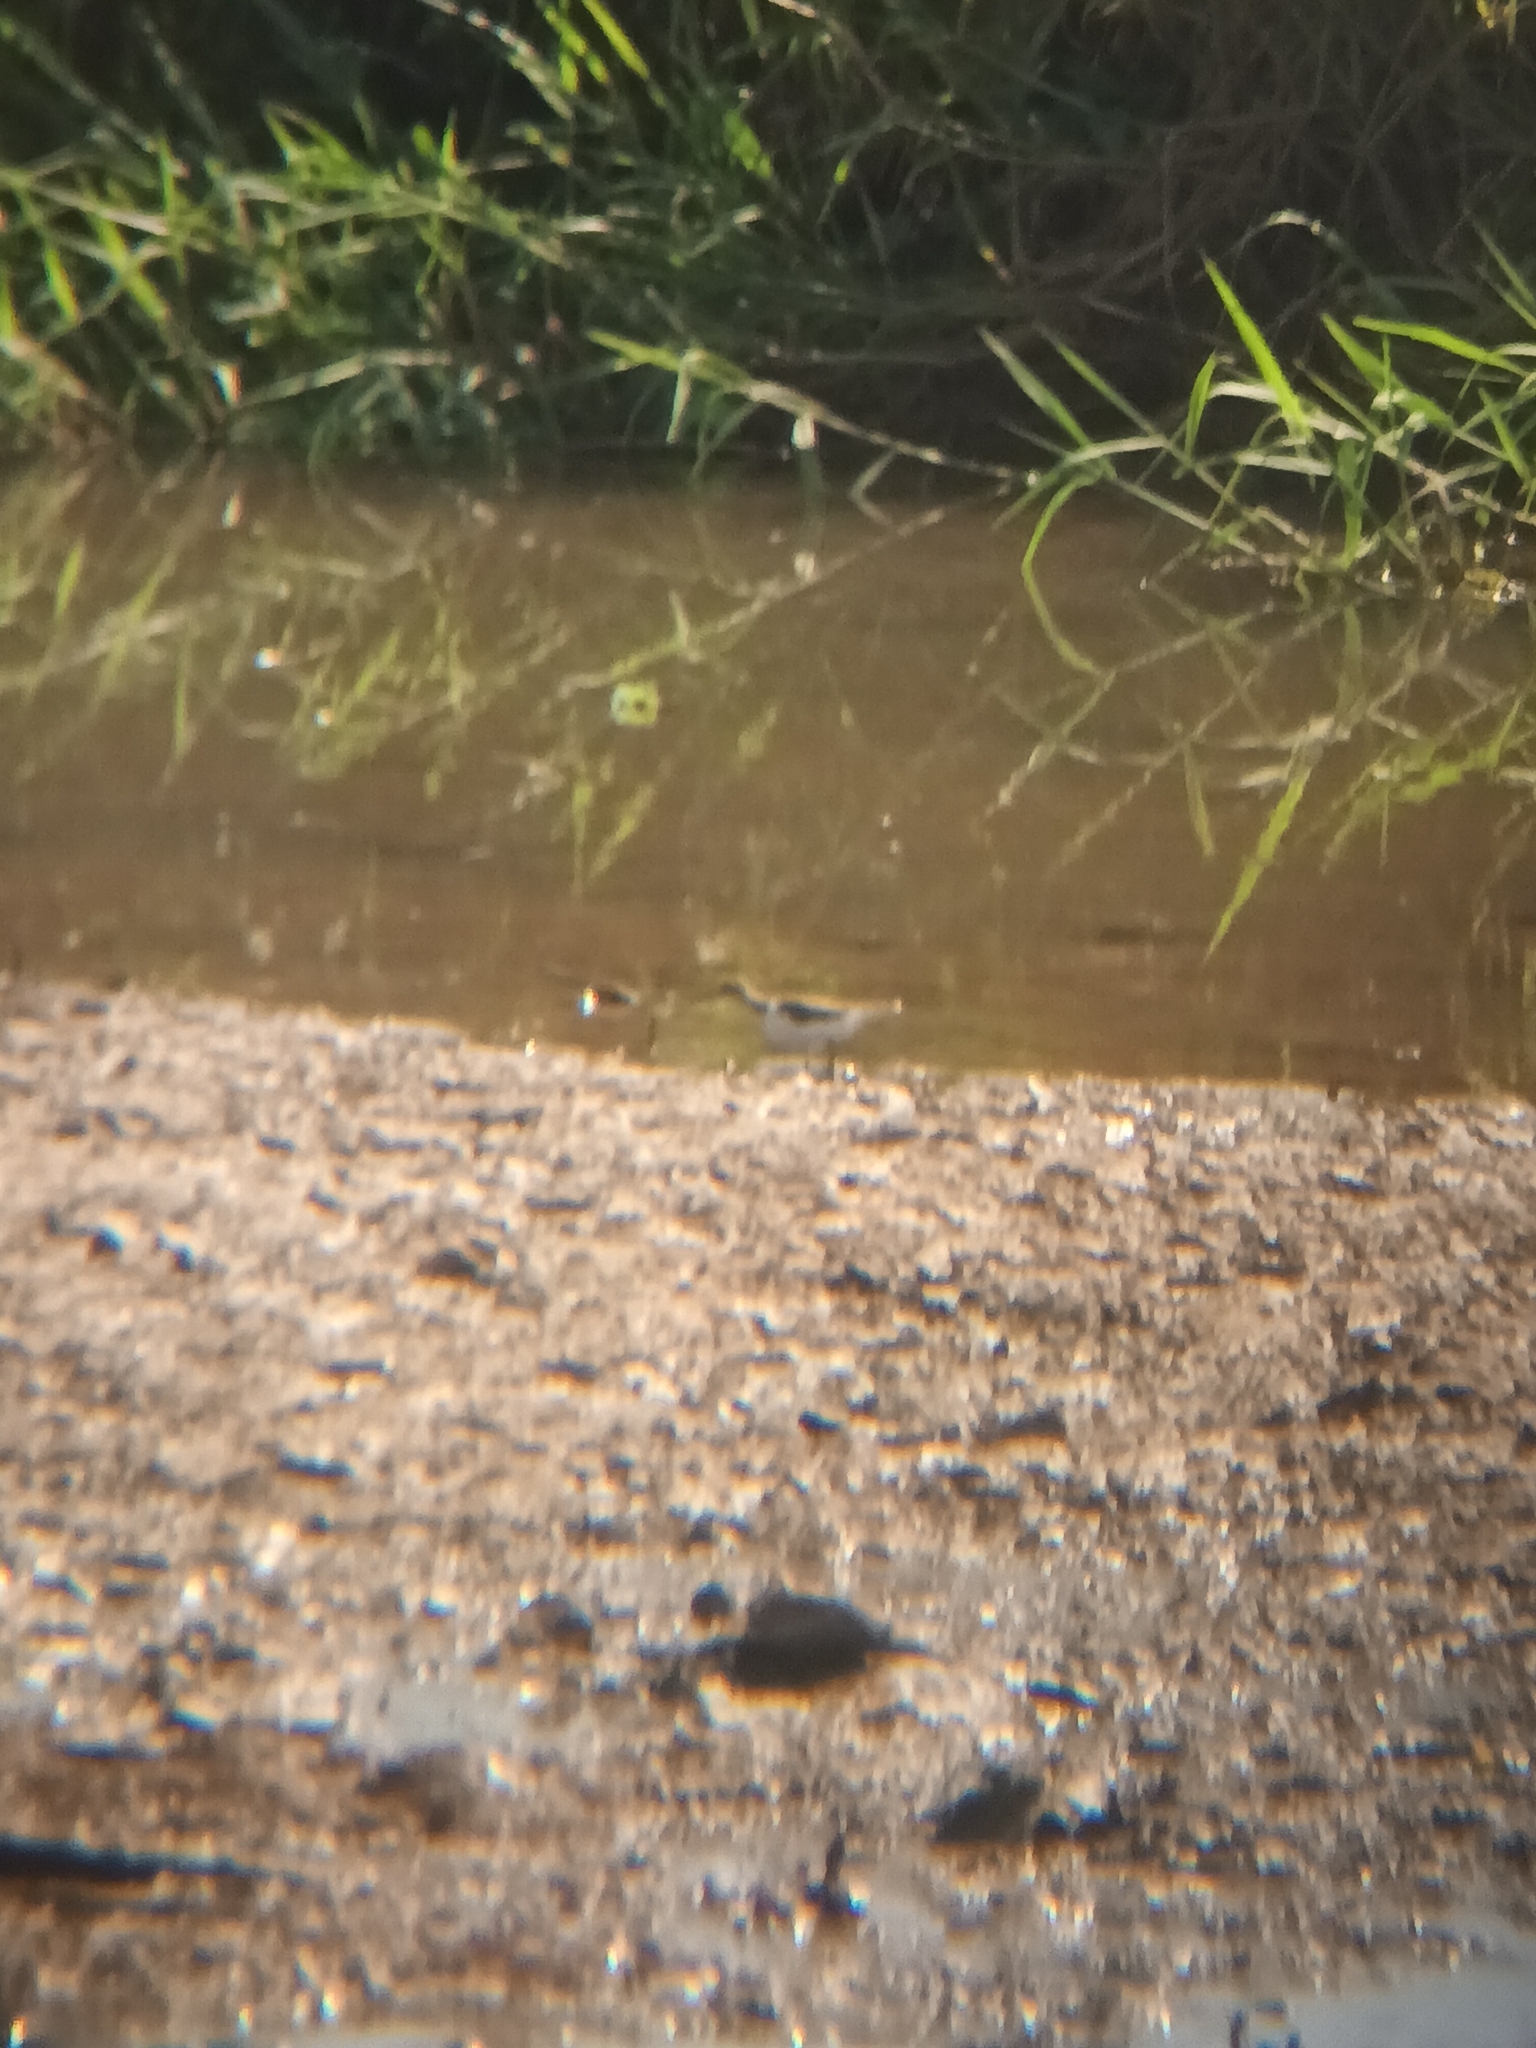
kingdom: Animalia
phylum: Chordata
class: Aves
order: Charadriiformes
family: Scolopacidae
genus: Actitis
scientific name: Actitis hypoleucos
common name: Common sandpiper
